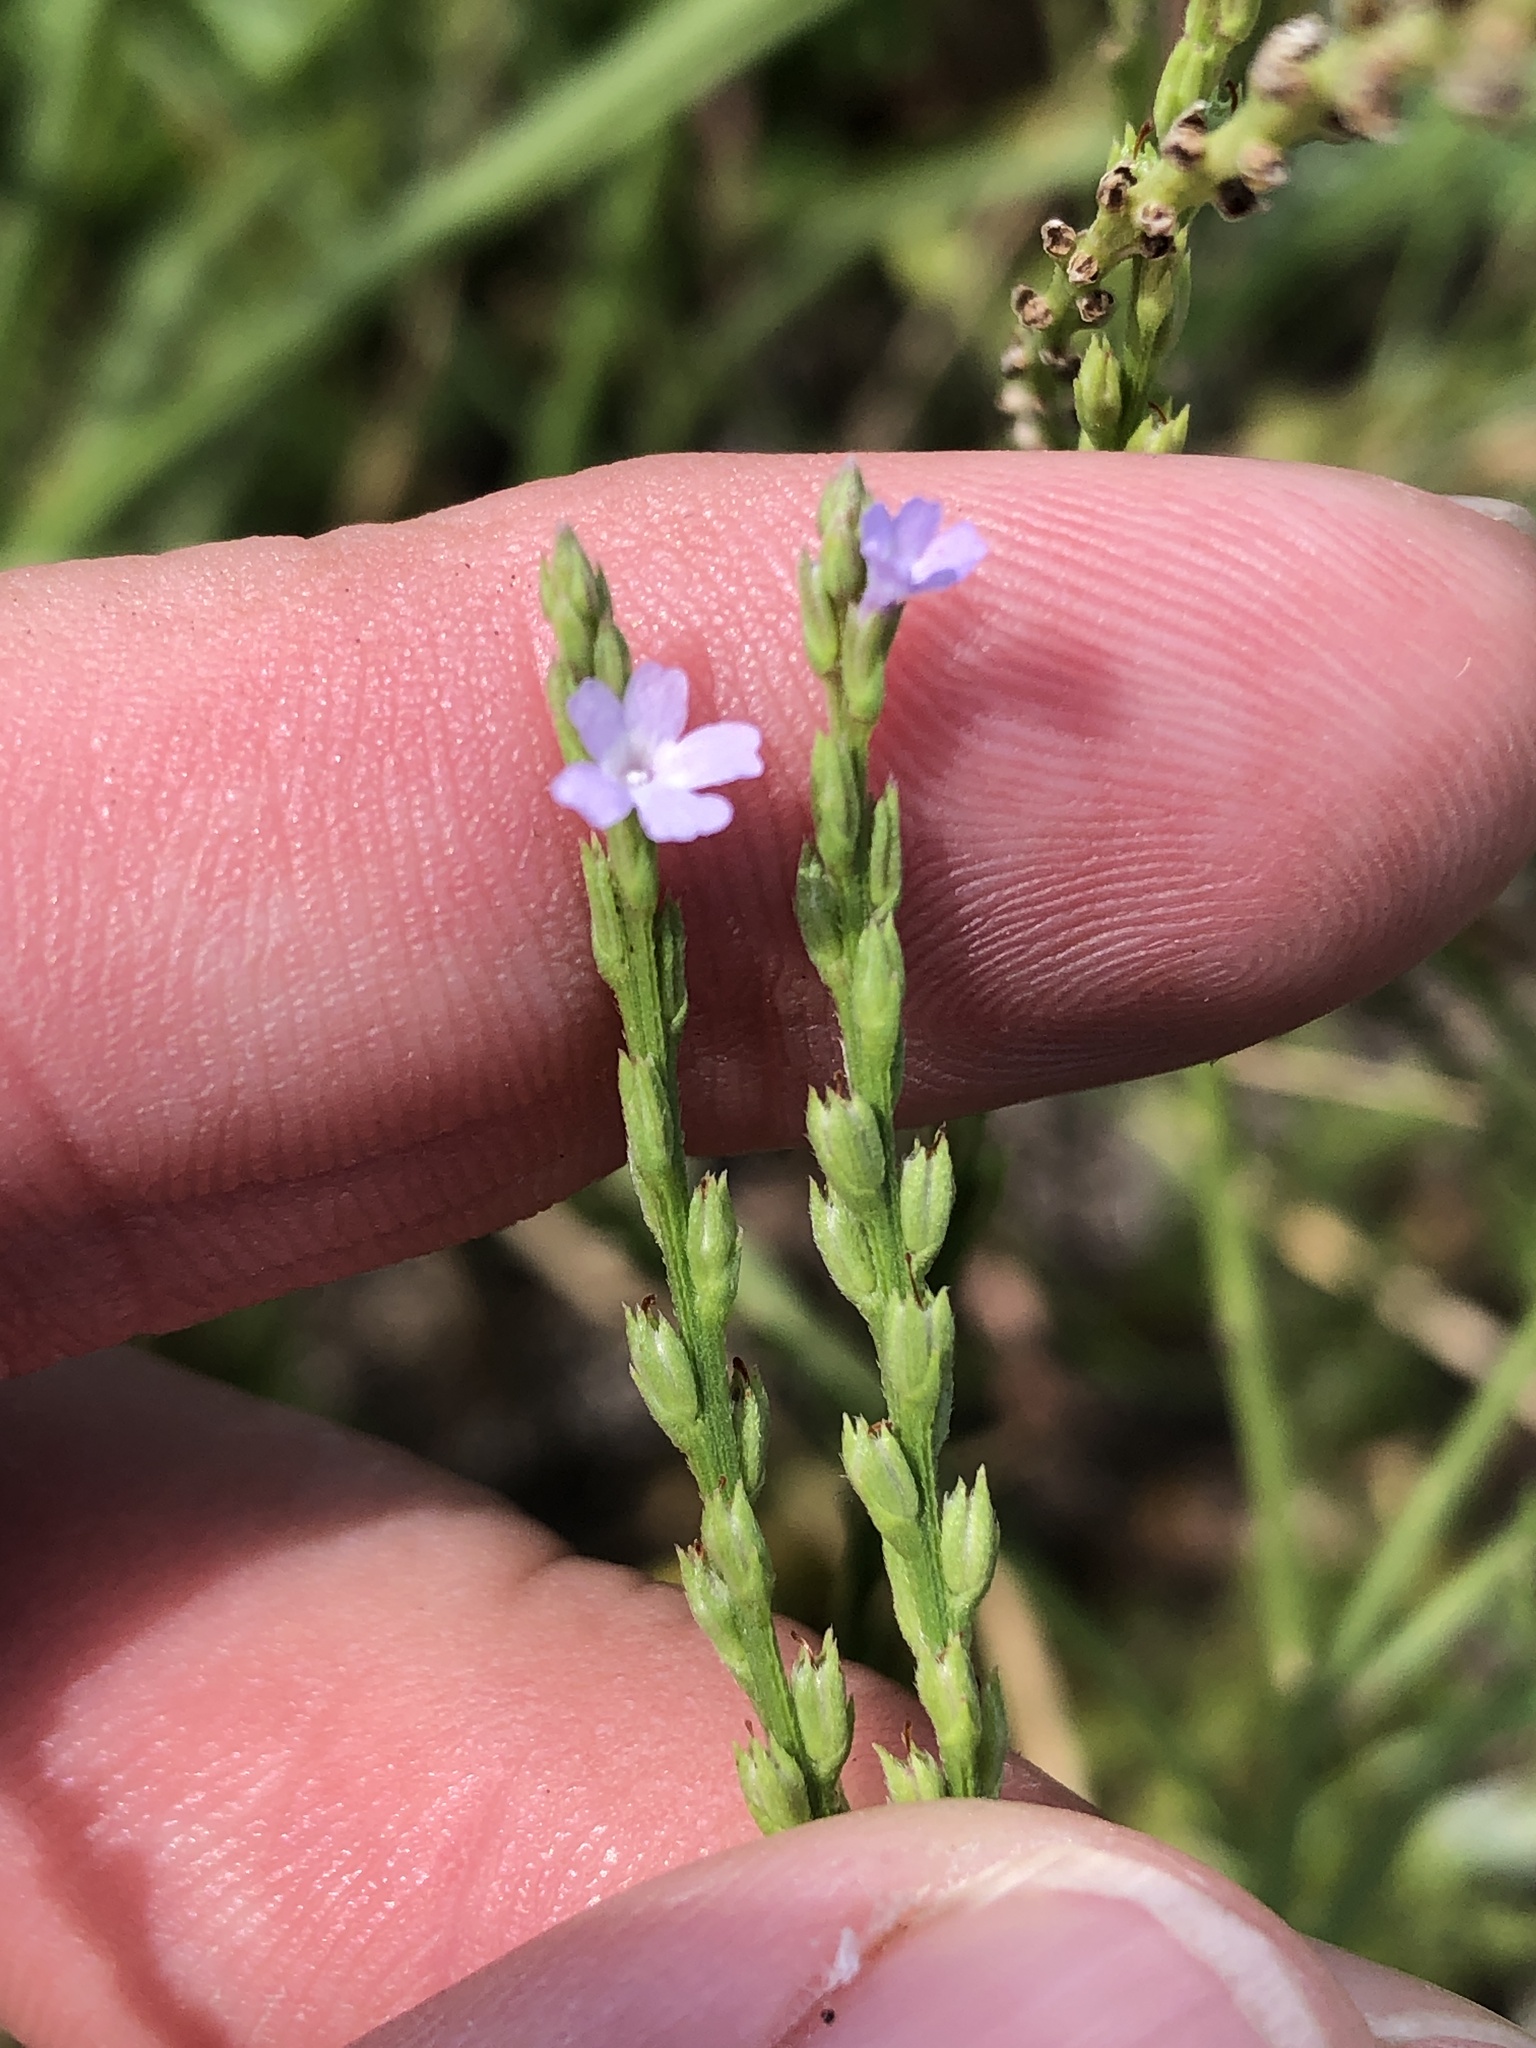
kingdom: Plantae
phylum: Tracheophyta
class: Magnoliopsida
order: Lamiales
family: Verbenaceae
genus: Verbena
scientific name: Verbena halei
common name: Texas vervain
